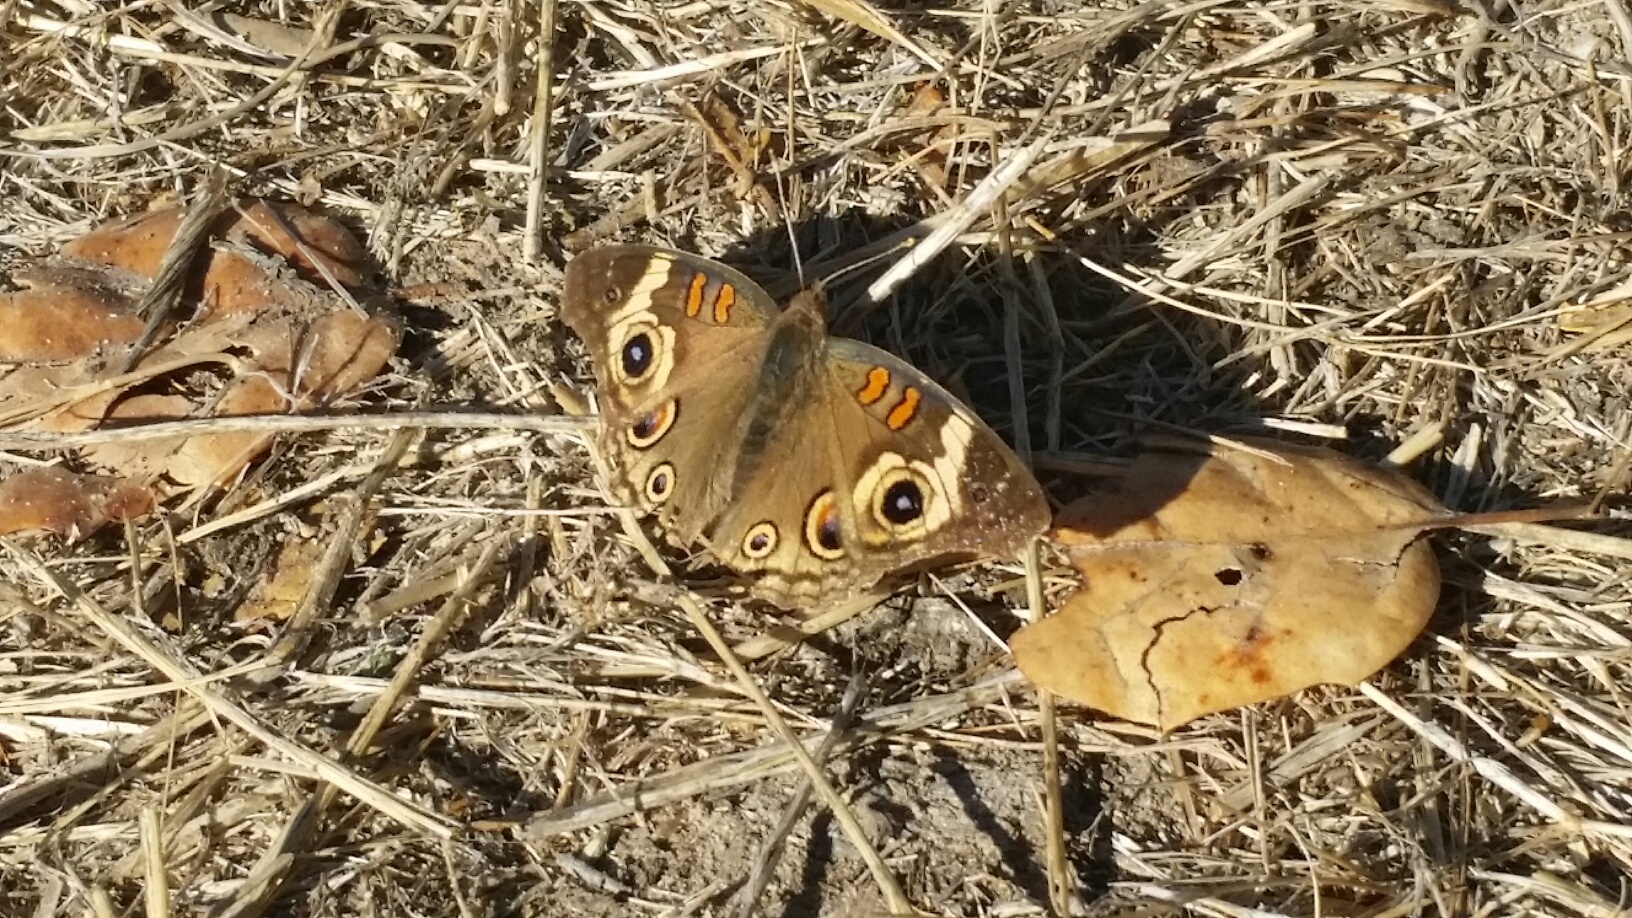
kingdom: Animalia
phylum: Arthropoda
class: Insecta
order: Lepidoptera
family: Nymphalidae
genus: Junonia
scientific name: Junonia grisea
